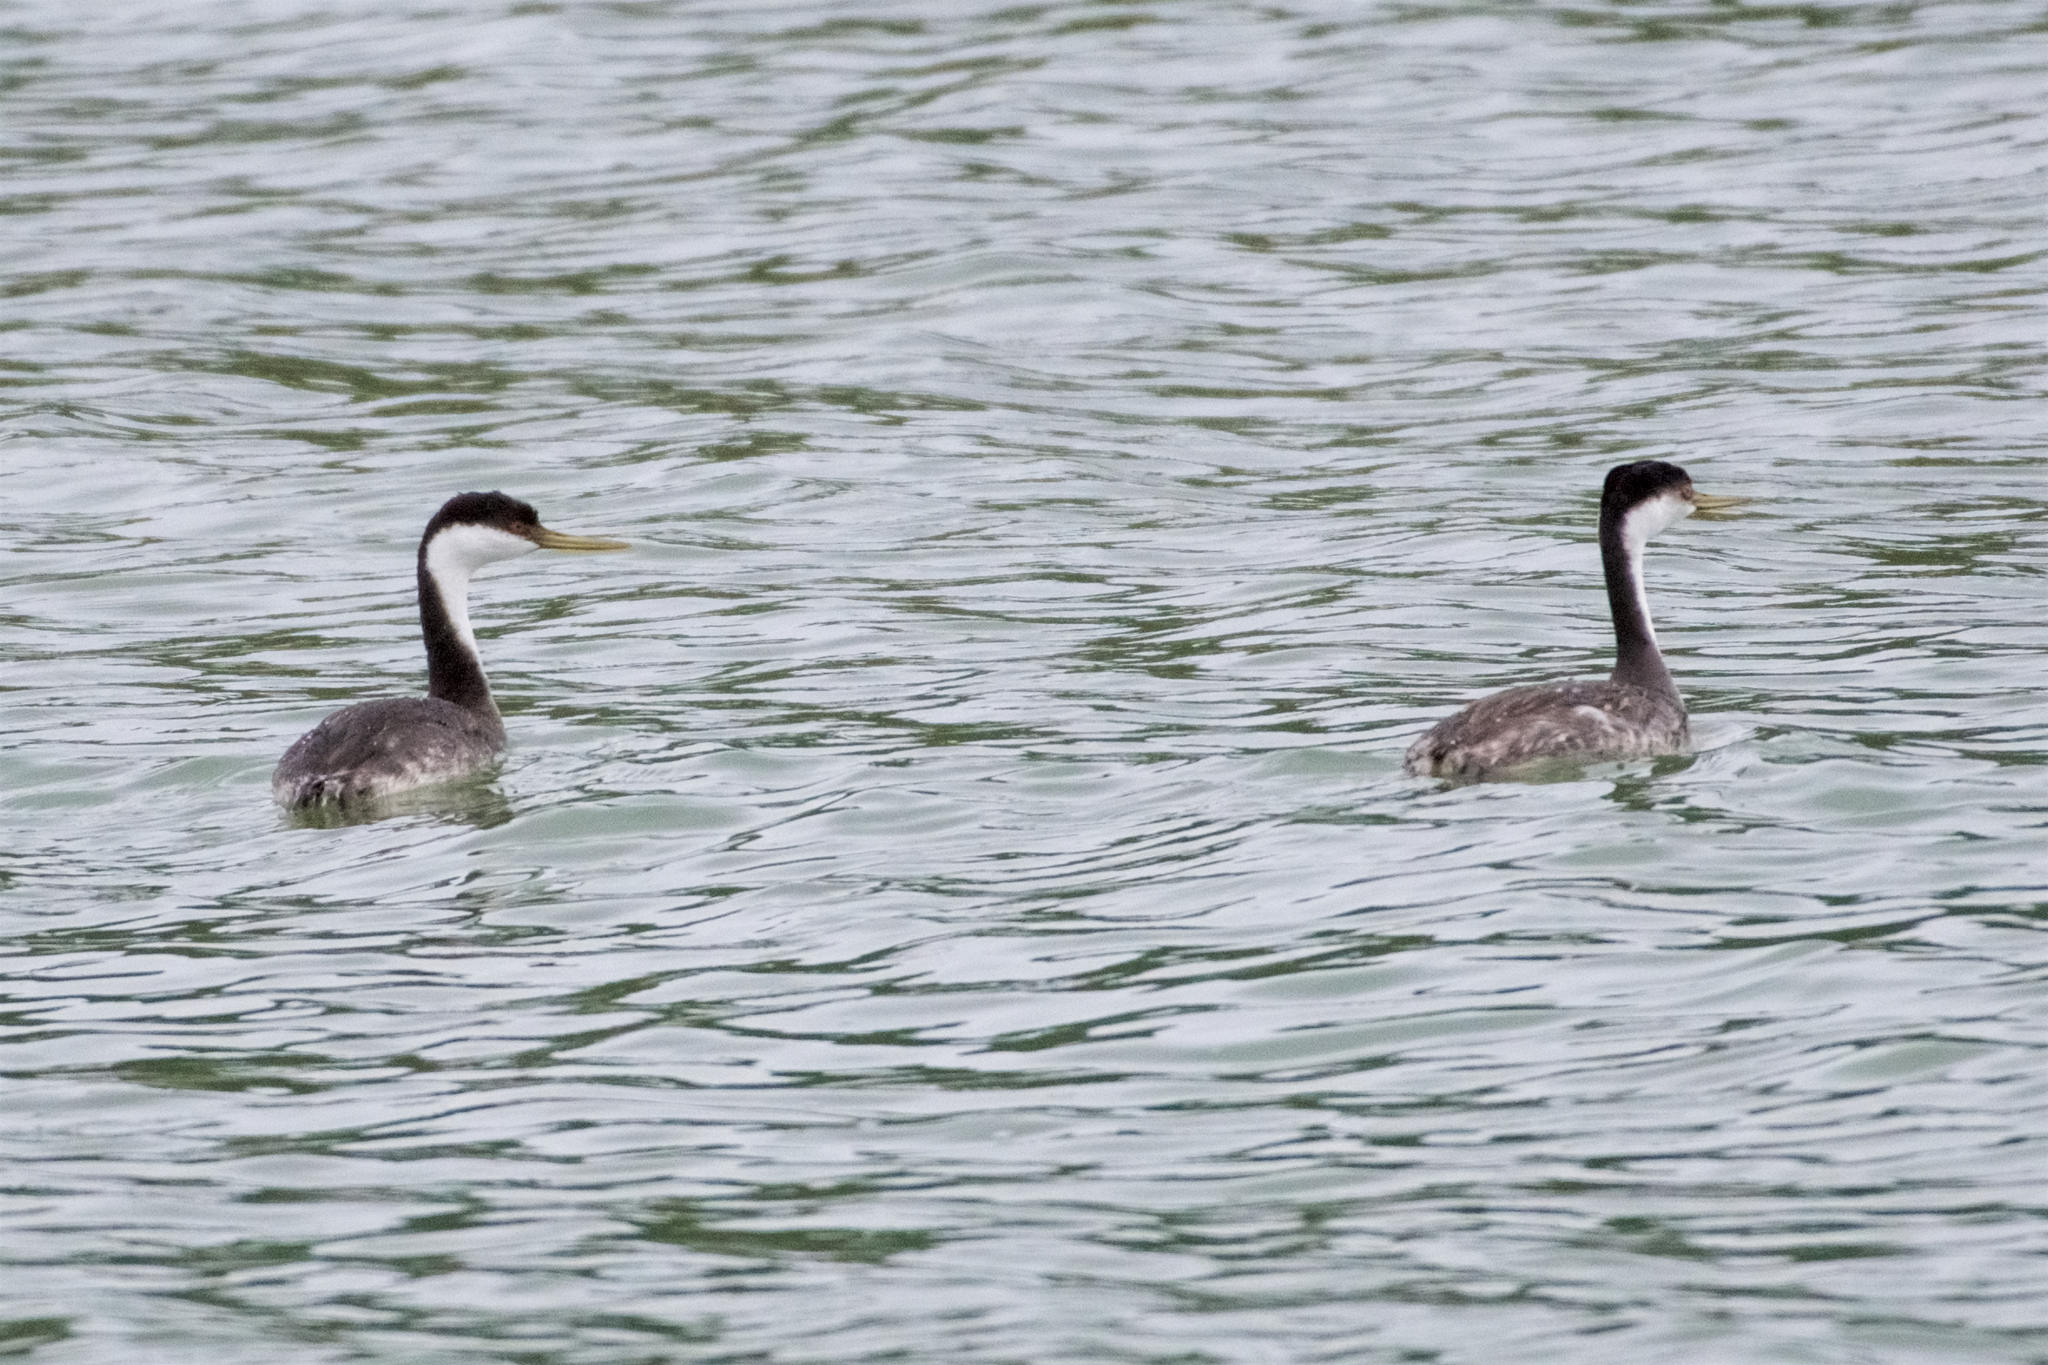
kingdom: Animalia
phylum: Chordata
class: Aves
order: Podicipediformes
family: Podicipedidae
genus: Aechmophorus
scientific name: Aechmophorus occidentalis
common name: Western grebe
